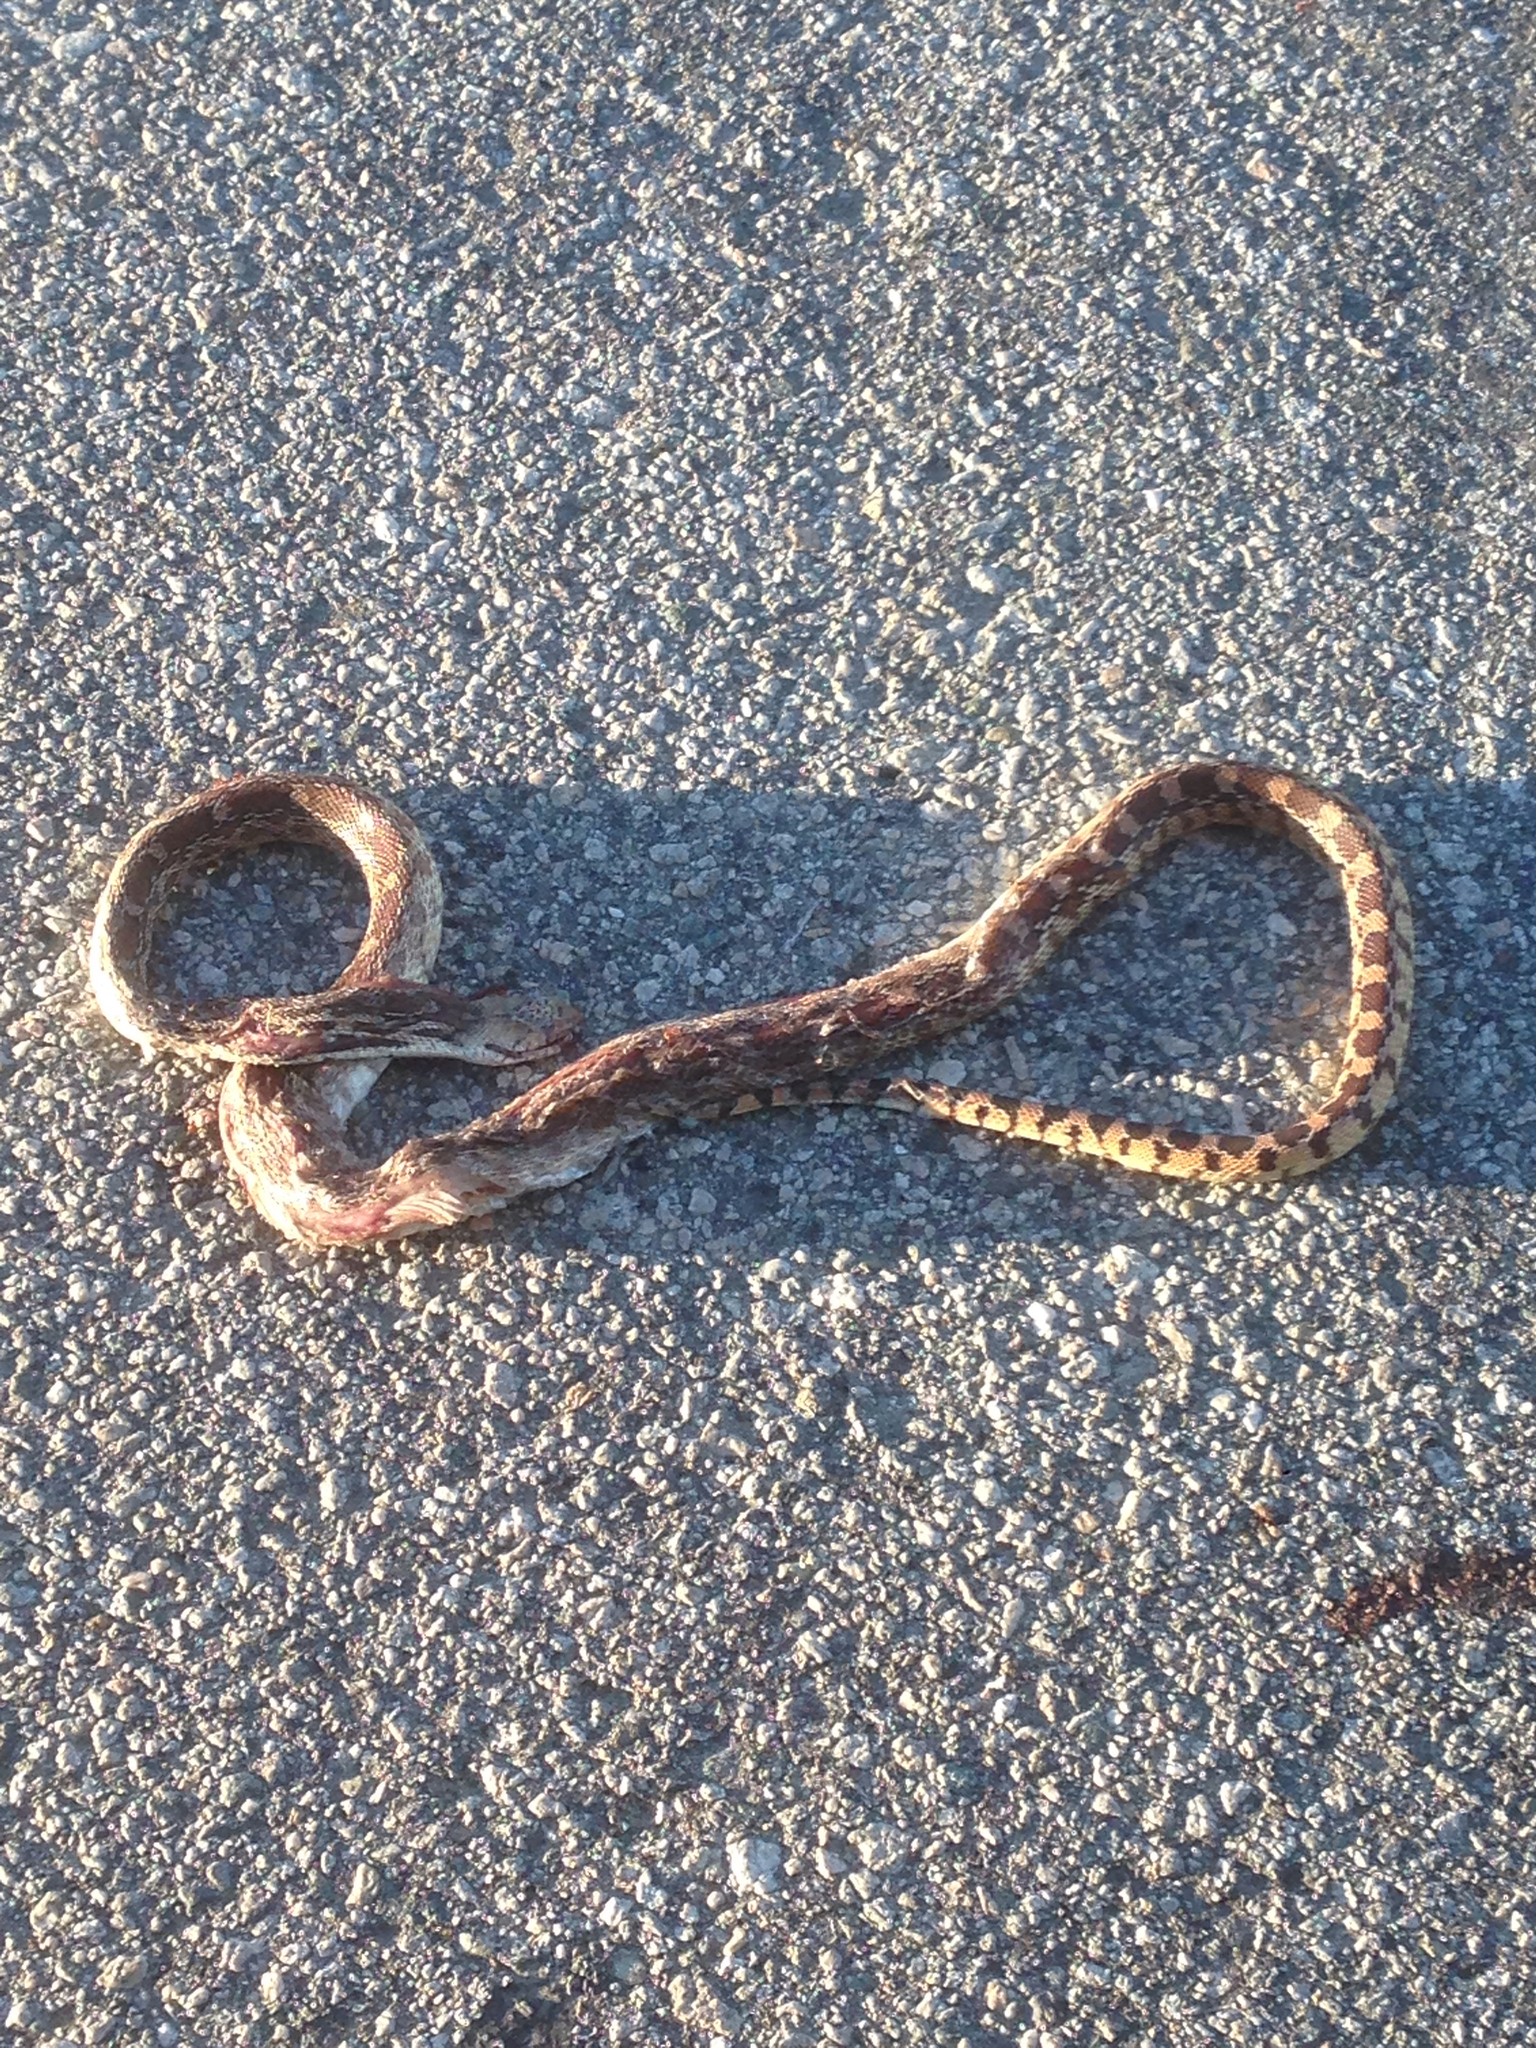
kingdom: Animalia
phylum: Chordata
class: Squamata
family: Colubridae
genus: Pituophis
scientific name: Pituophis catenifer
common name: Gopher snake
